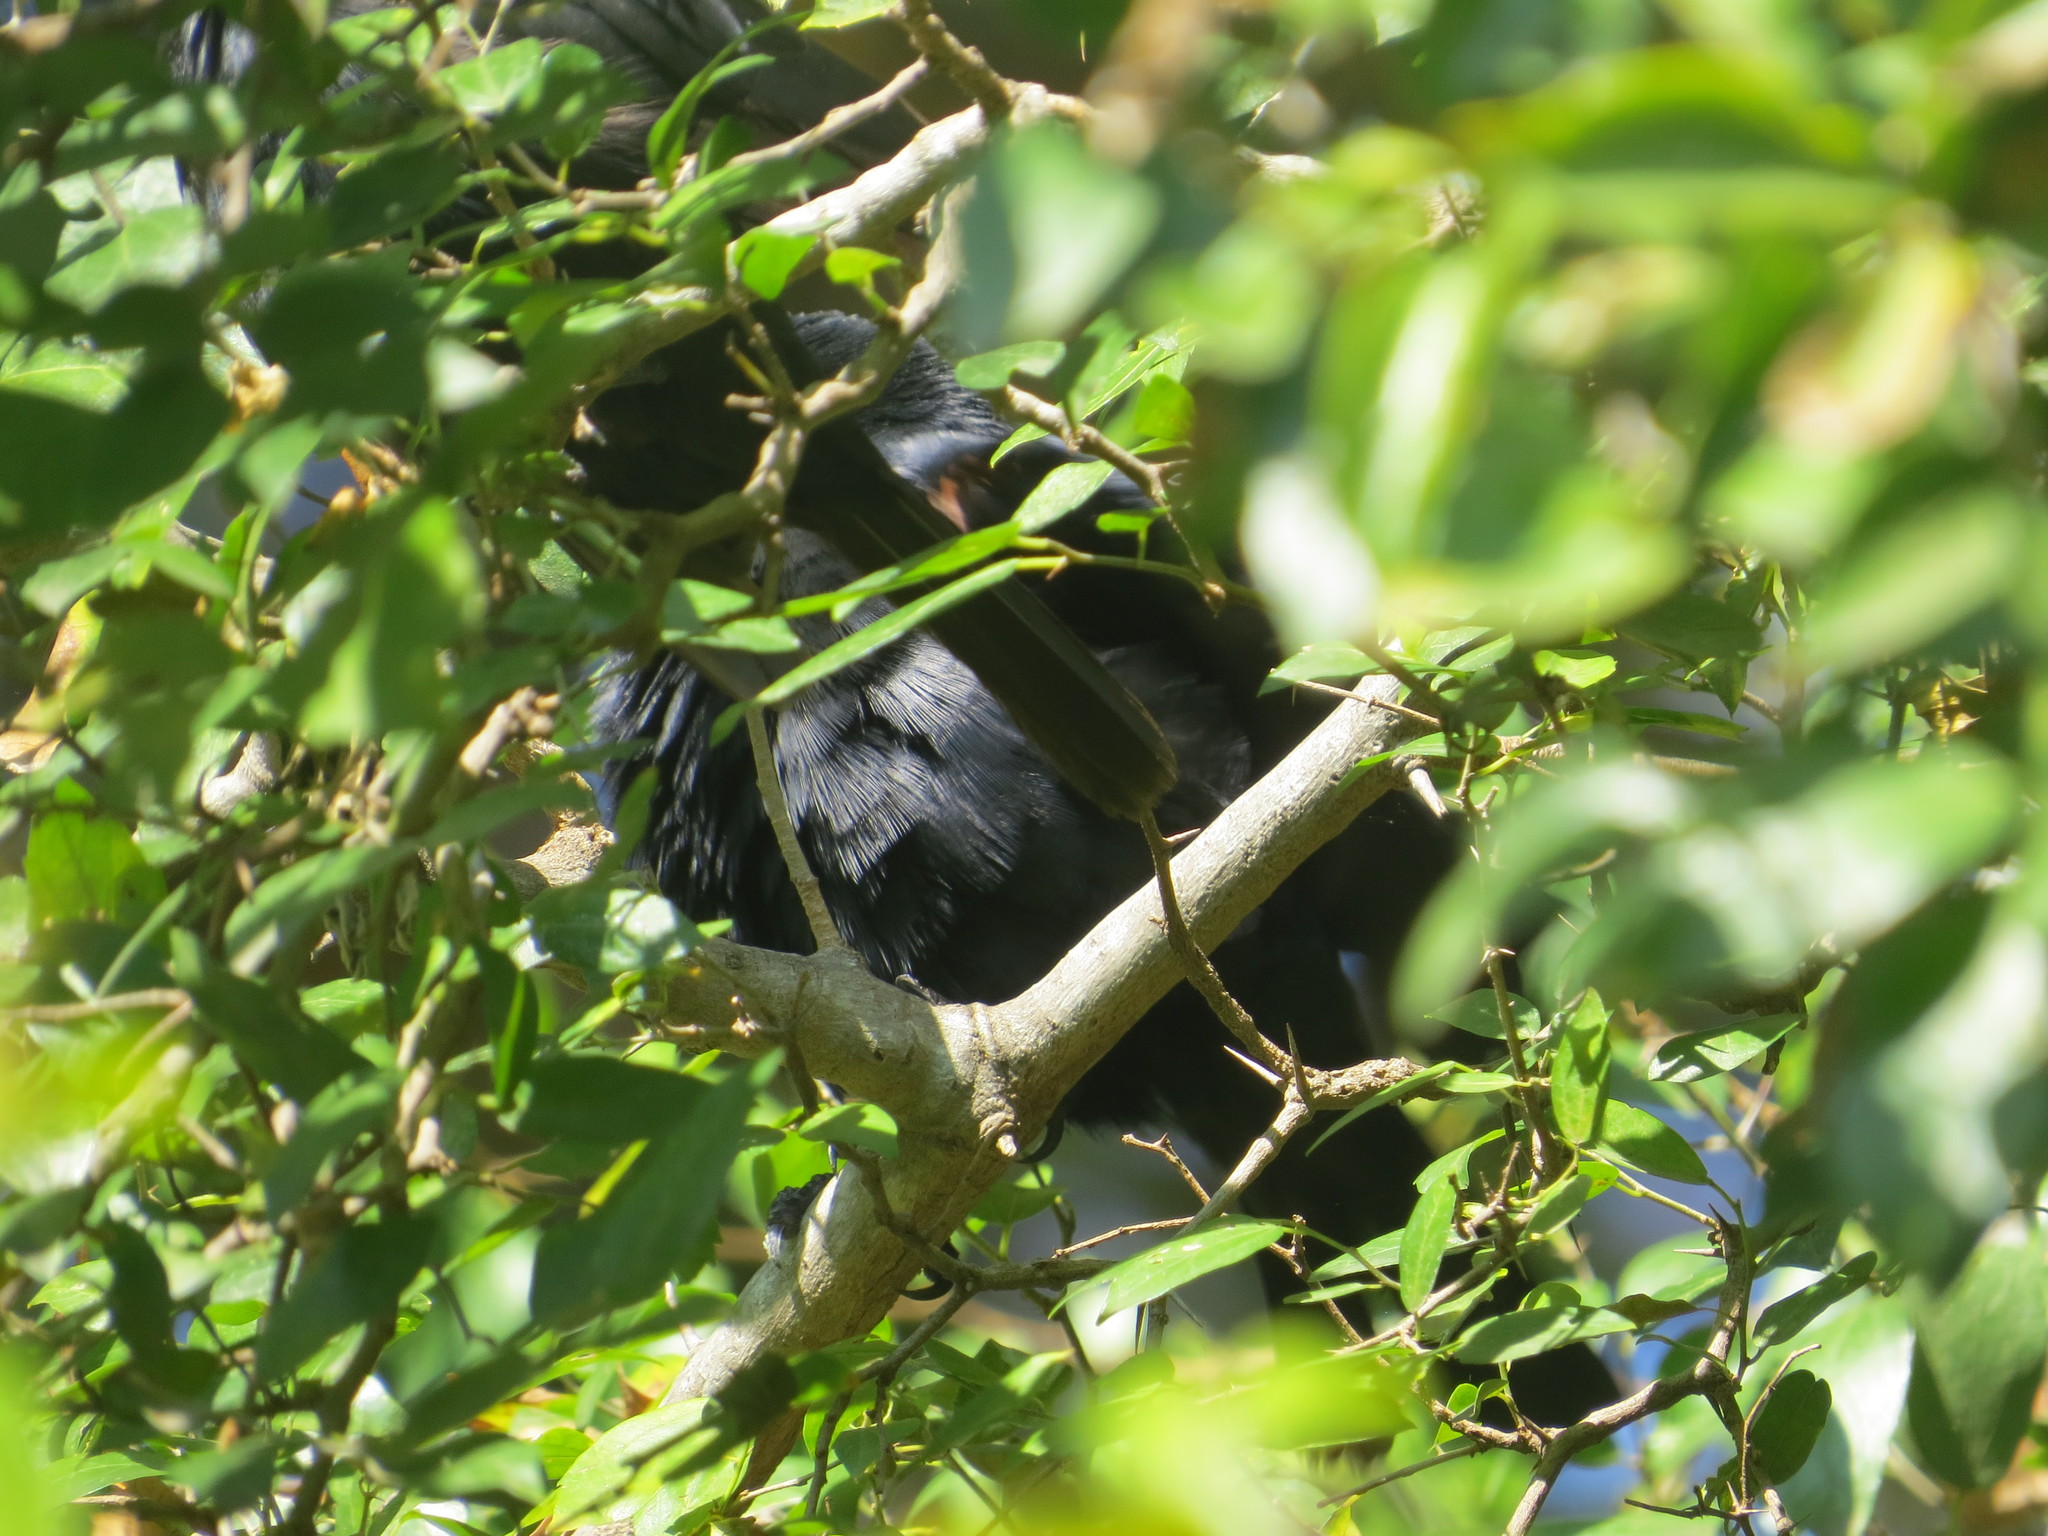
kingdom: Animalia
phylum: Chordata
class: Aves
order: Passeriformes
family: Icteridae
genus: Molothrus
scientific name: Molothrus rufoaxillaris
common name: Screaming cowbird
